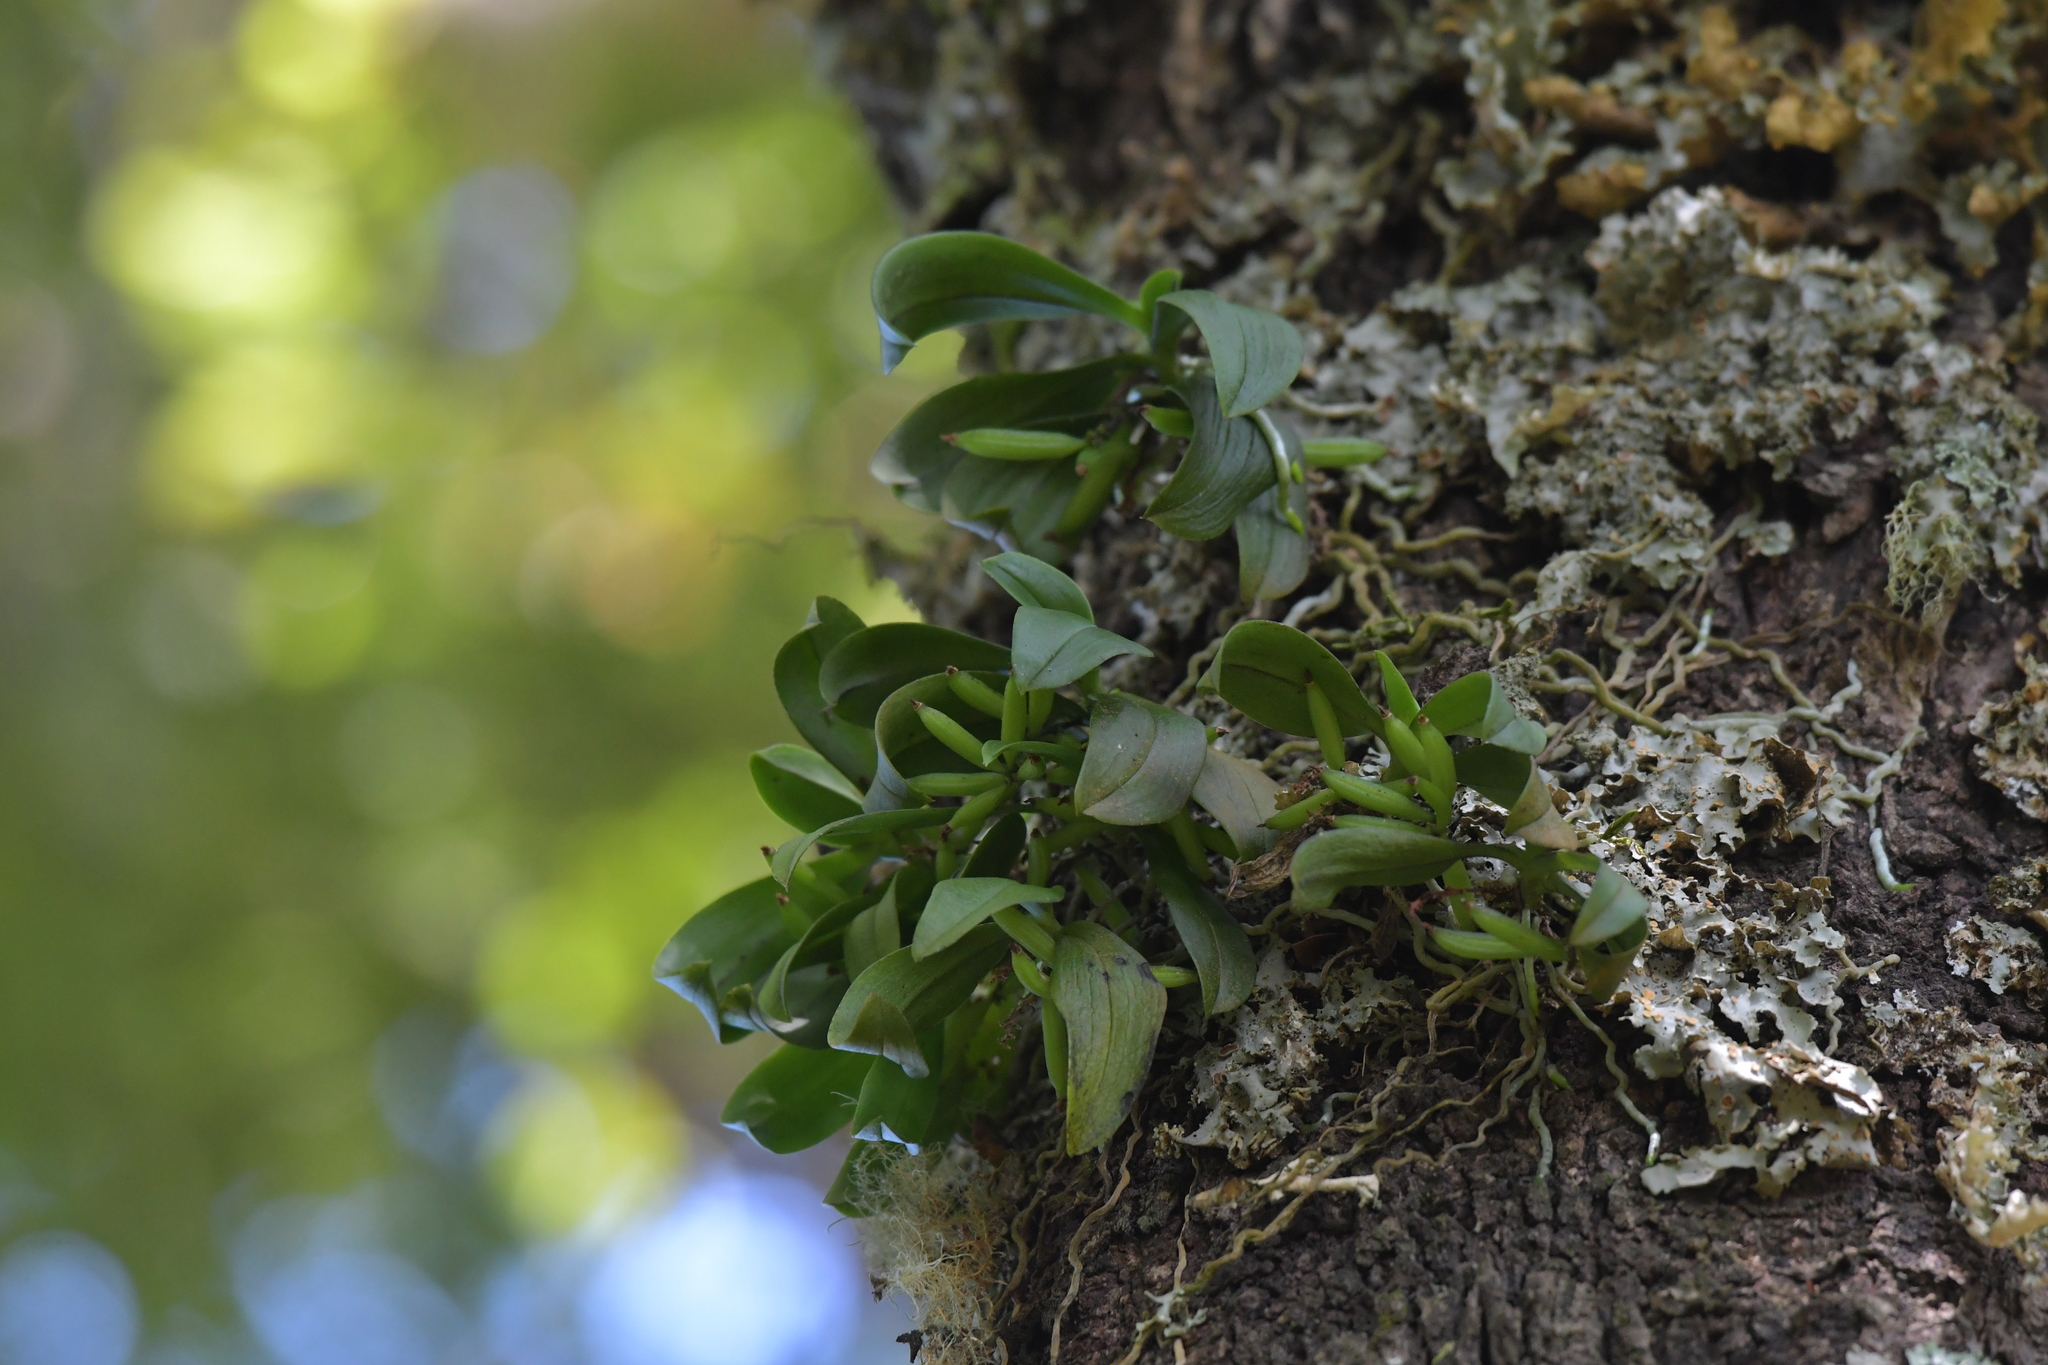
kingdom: Plantae
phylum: Tracheophyta
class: Liliopsida
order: Asparagales
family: Orchidaceae
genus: Drymoanthus
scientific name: Drymoanthus adversus
